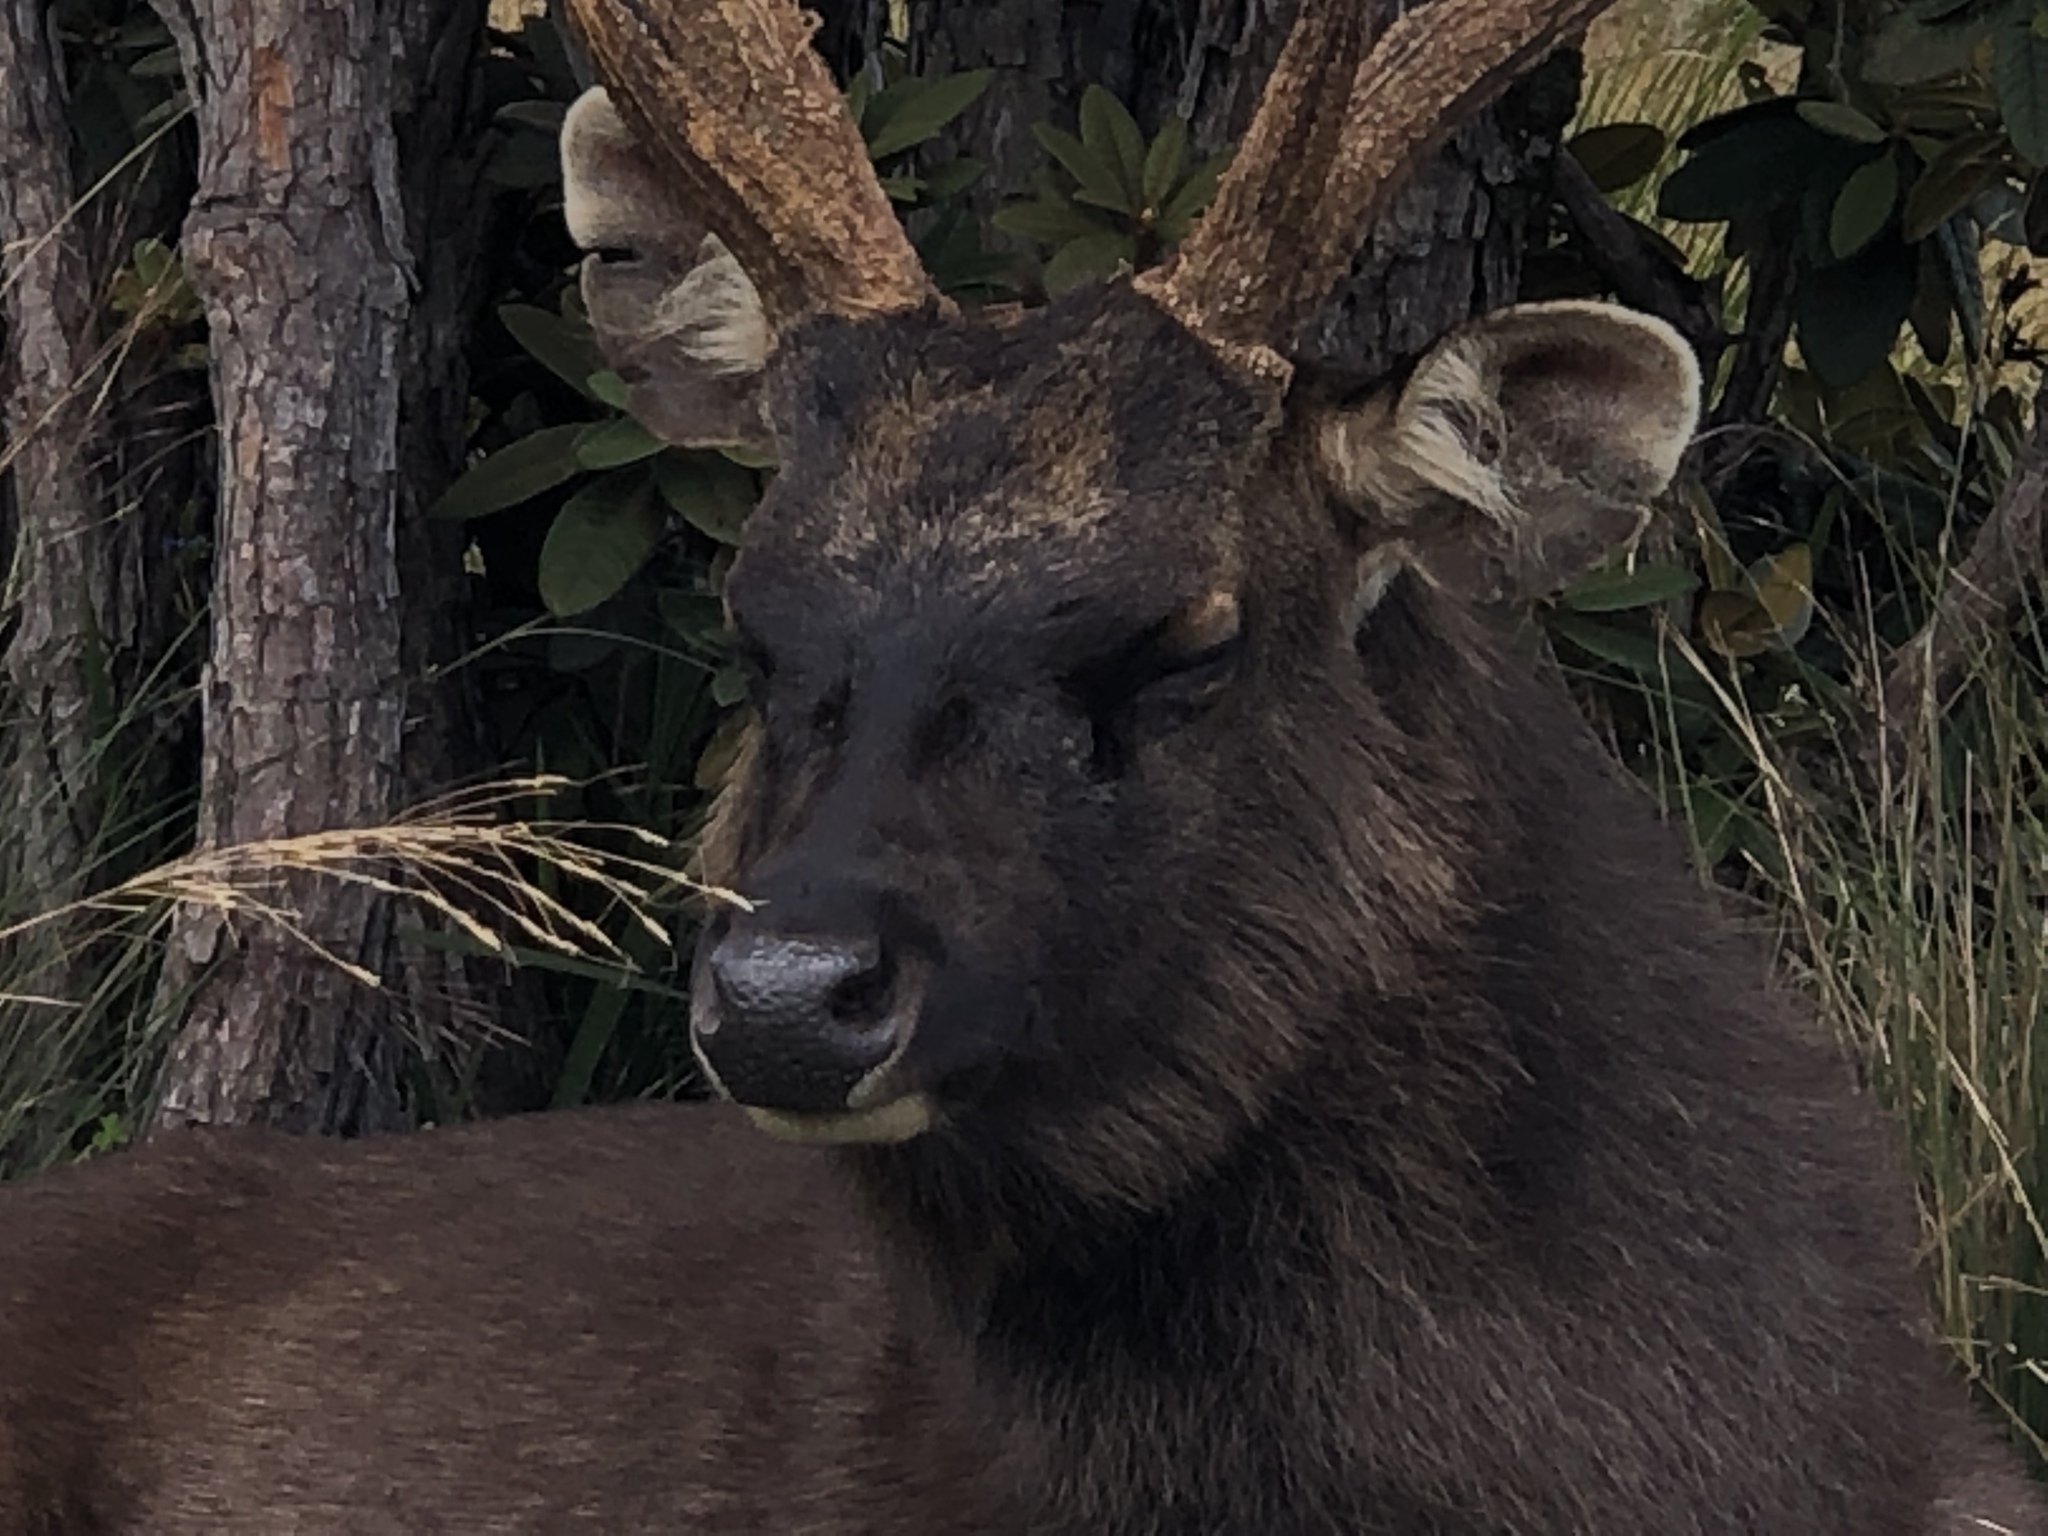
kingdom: Animalia
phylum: Chordata
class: Mammalia
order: Artiodactyla
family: Cervidae
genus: Rusa
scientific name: Rusa unicolor
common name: Sambar
